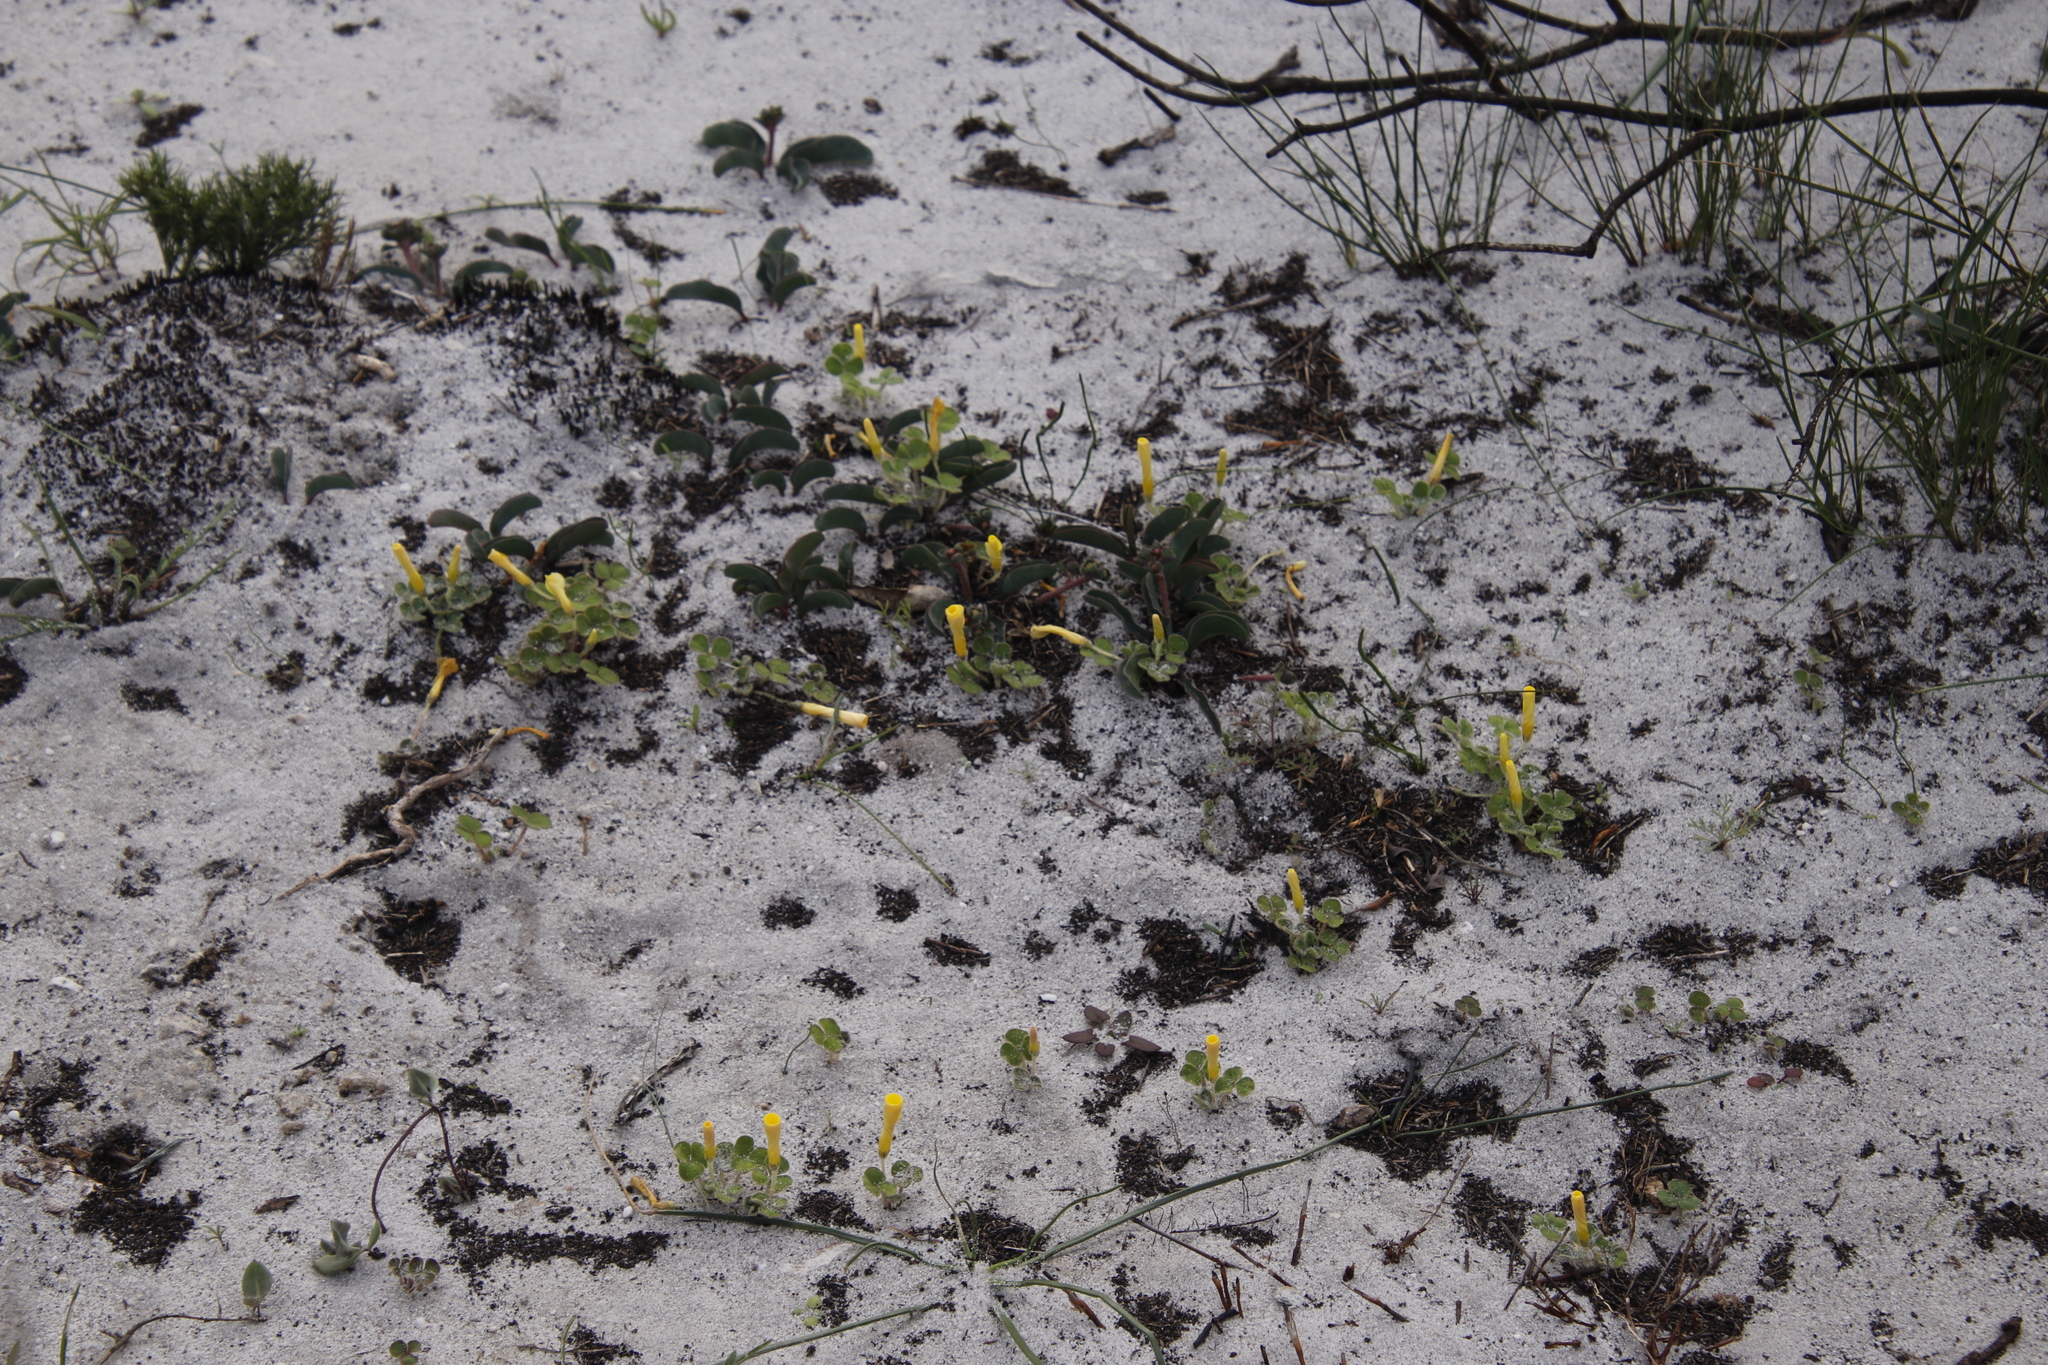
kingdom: Plantae
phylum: Tracheophyta
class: Magnoliopsida
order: Oxalidales
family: Oxalidaceae
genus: Oxalis
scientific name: Oxalis luteola
